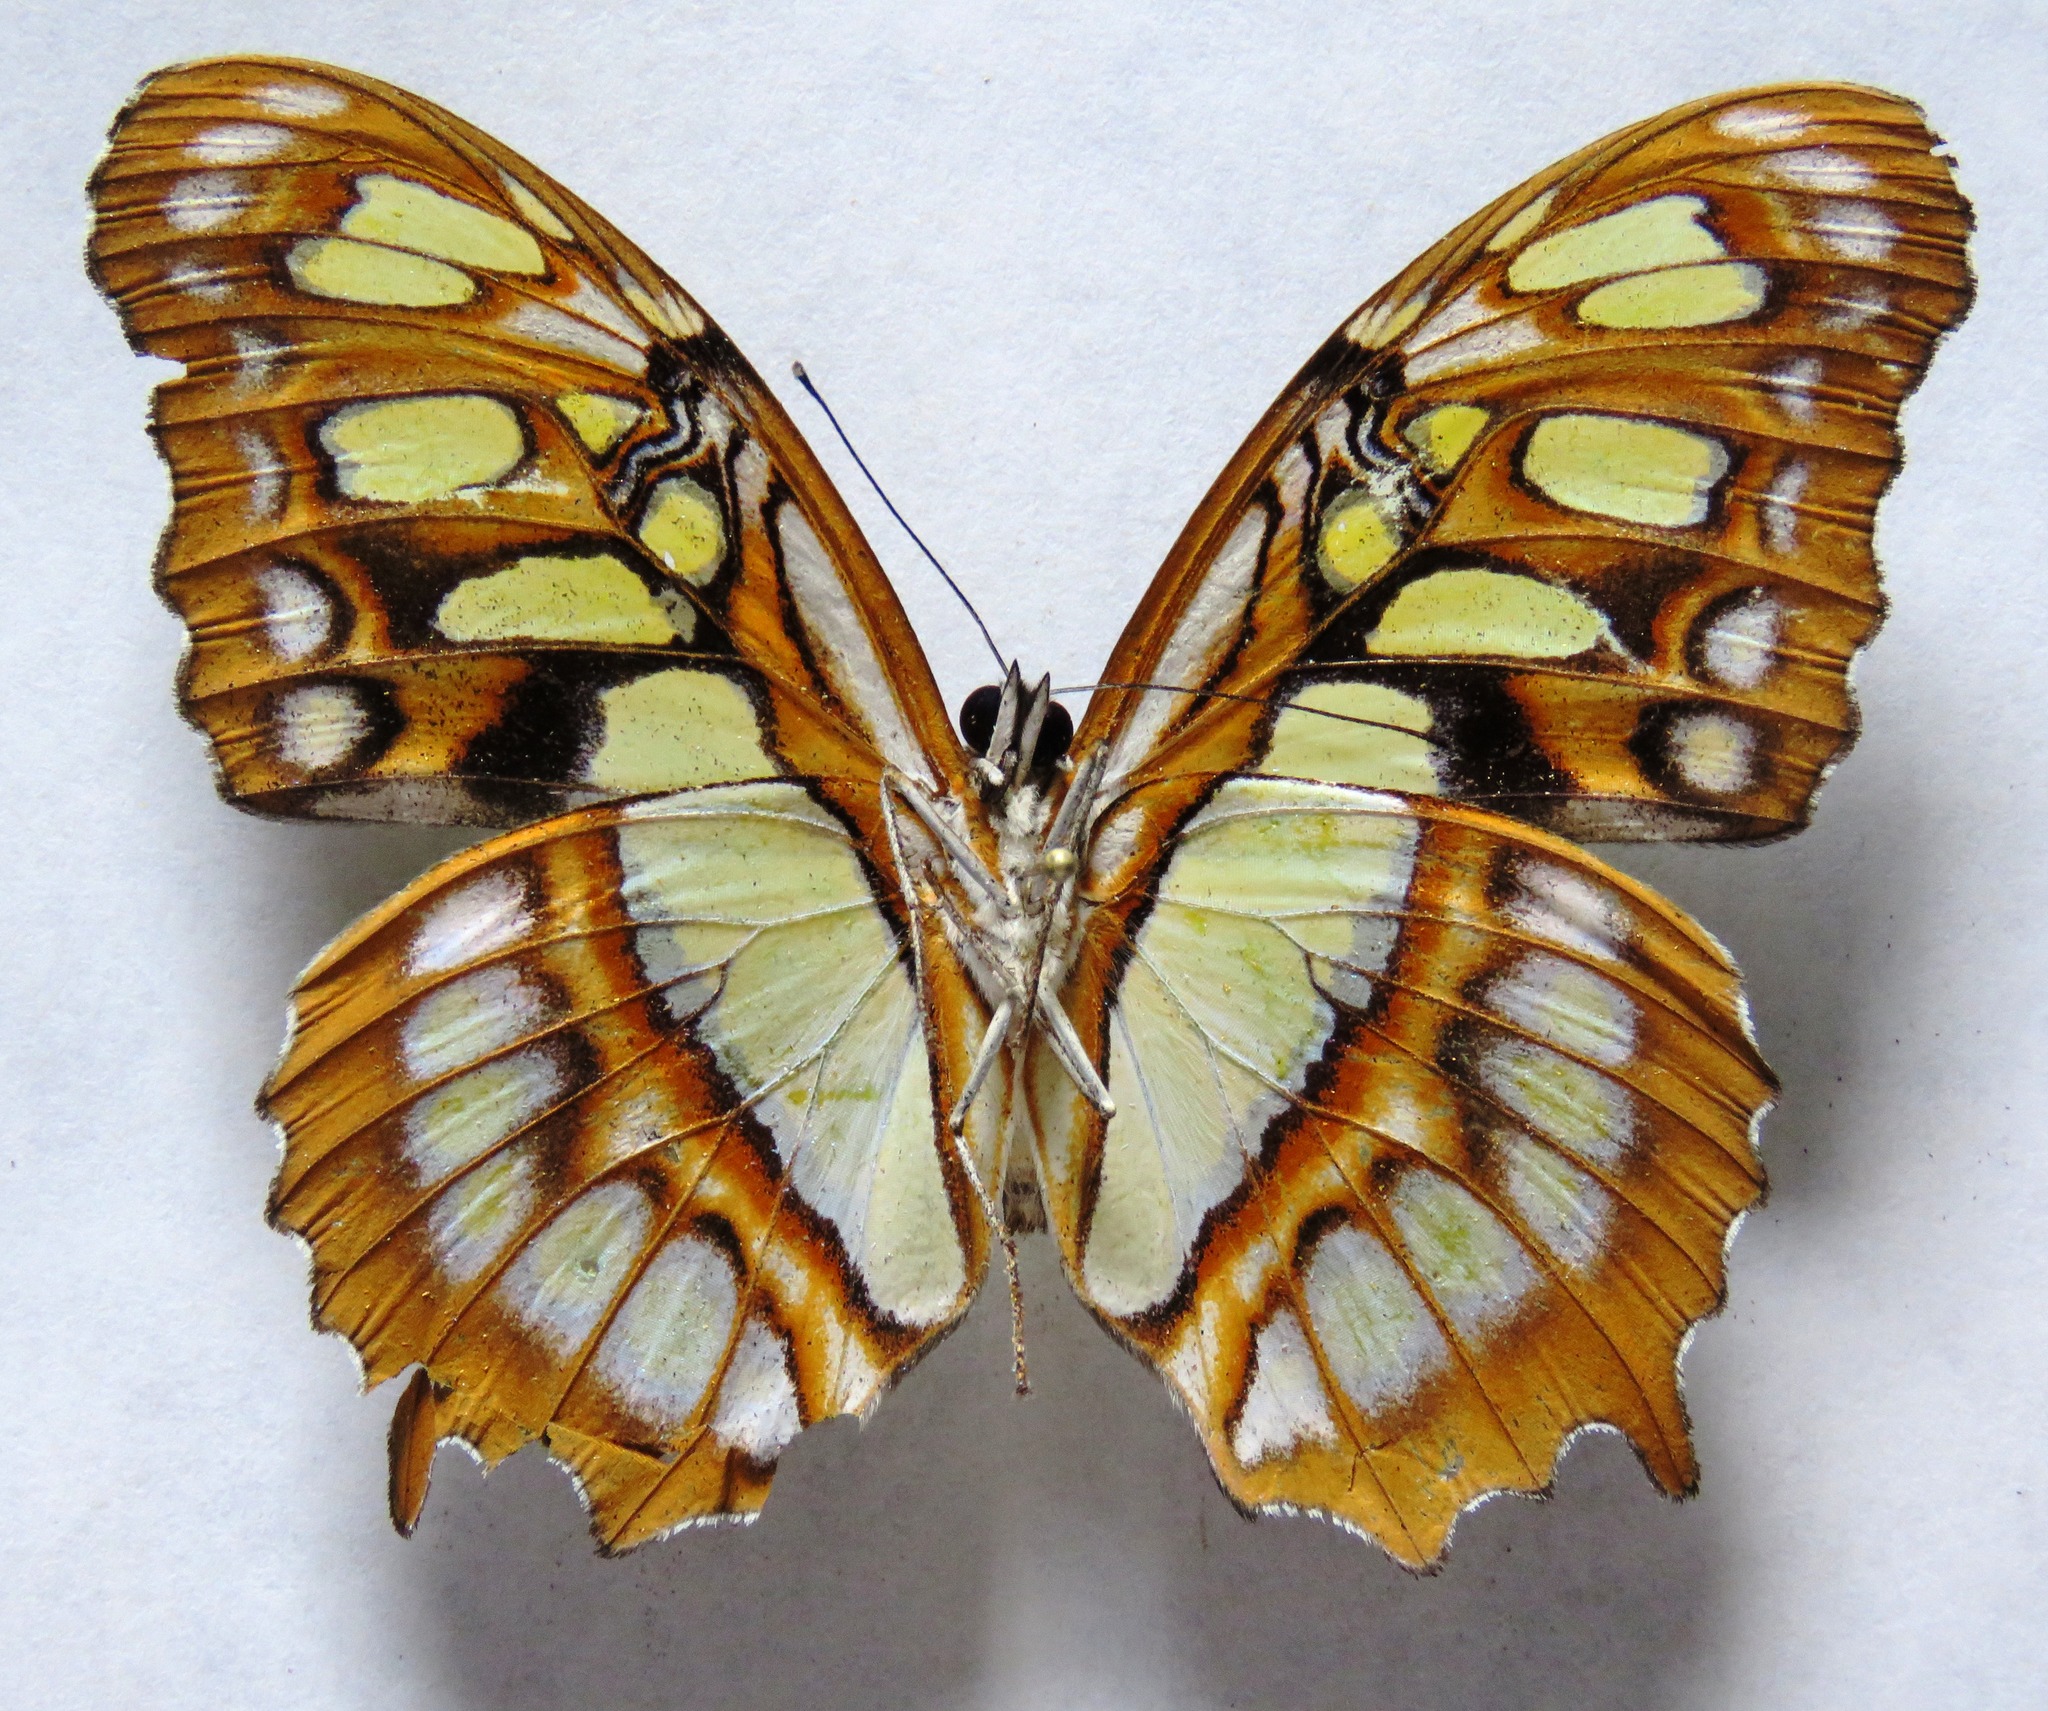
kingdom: Animalia
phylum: Arthropoda
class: Insecta
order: Lepidoptera
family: Nymphalidae
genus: Siproeta
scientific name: Siproeta stelenes
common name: Malachite
